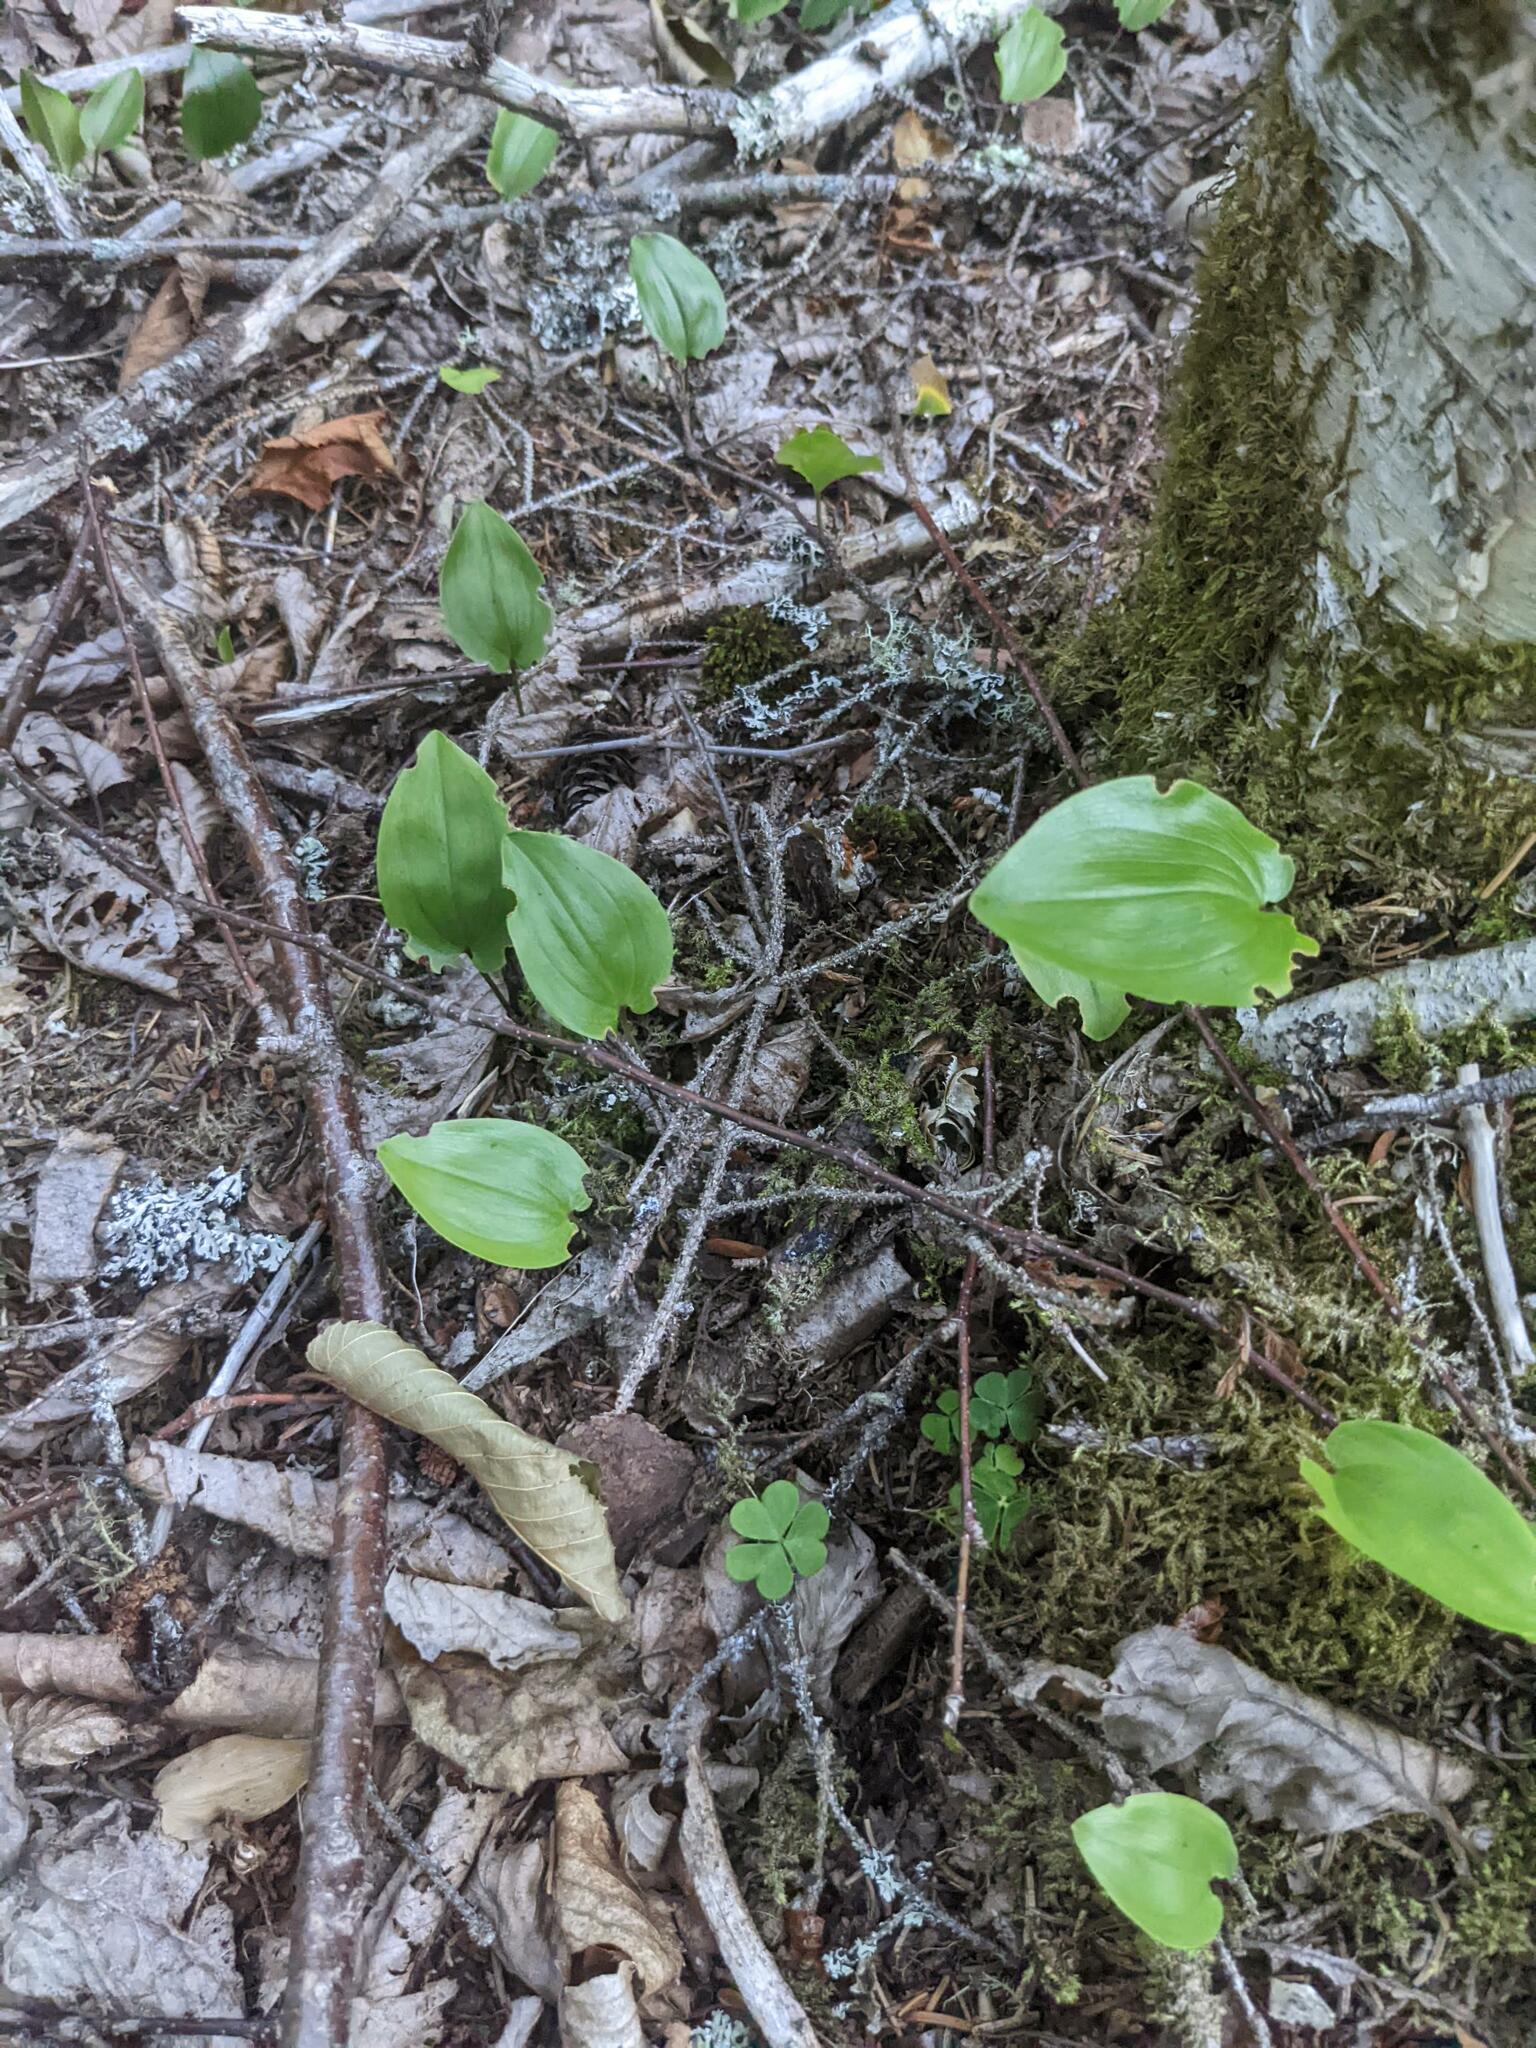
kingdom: Plantae
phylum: Tracheophyta
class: Liliopsida
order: Asparagales
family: Asparagaceae
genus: Maianthemum
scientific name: Maianthemum canadense
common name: False lily-of-the-valley
